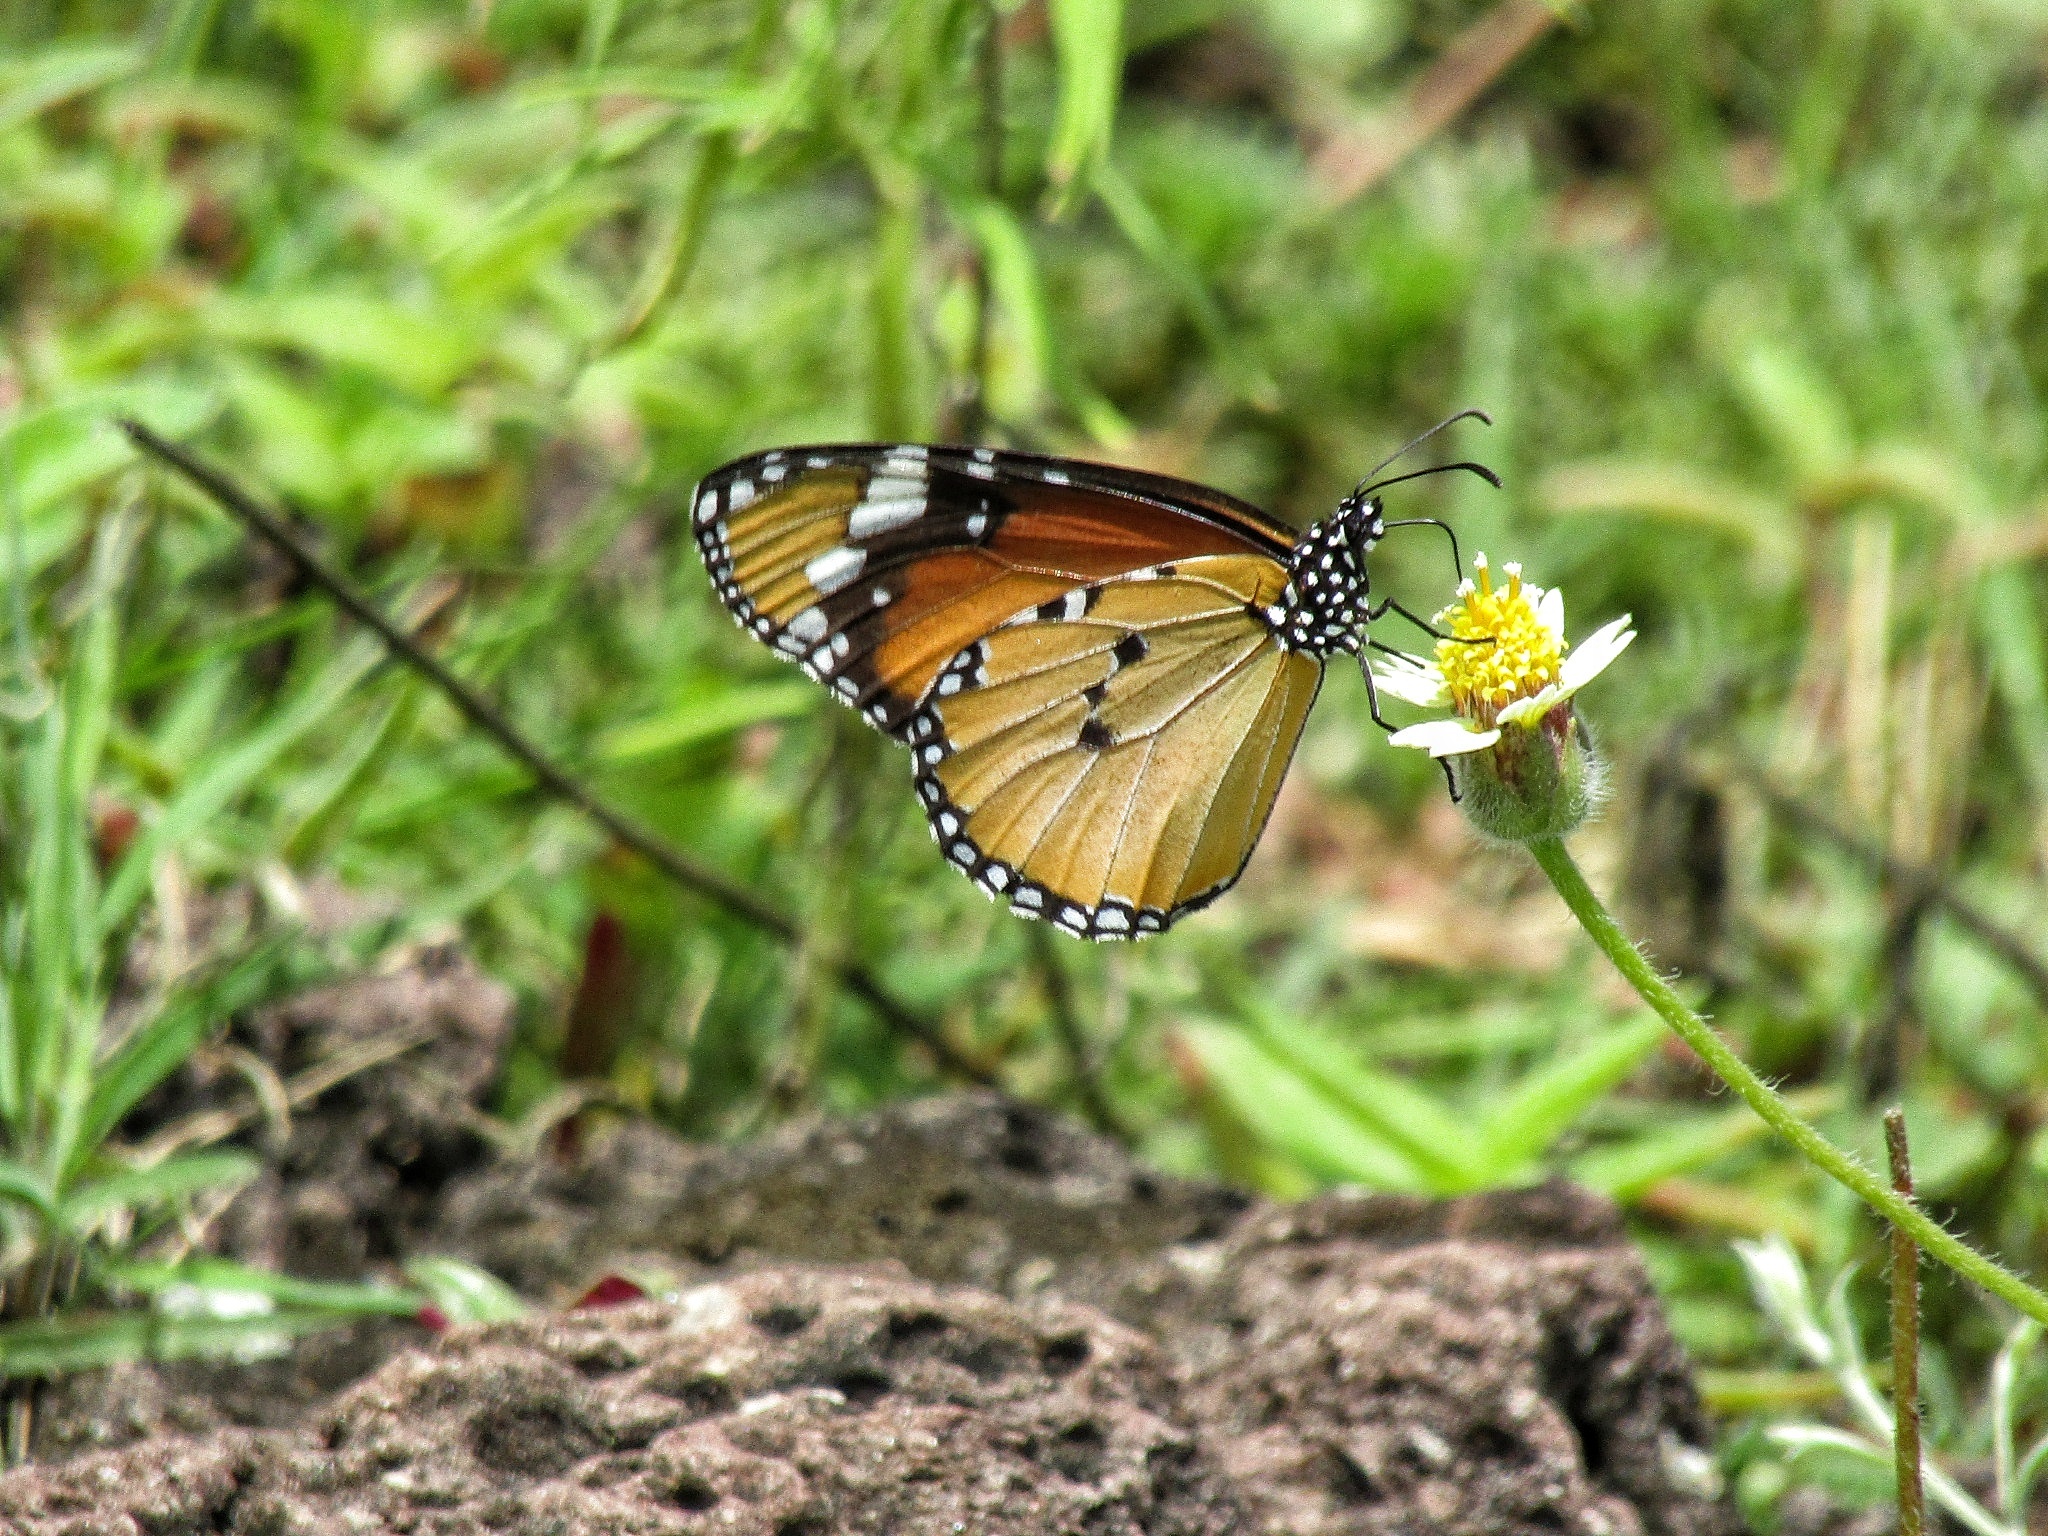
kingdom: Animalia
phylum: Arthropoda
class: Insecta
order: Lepidoptera
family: Nymphalidae
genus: Danaus
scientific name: Danaus chrysippus
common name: Plain tiger
